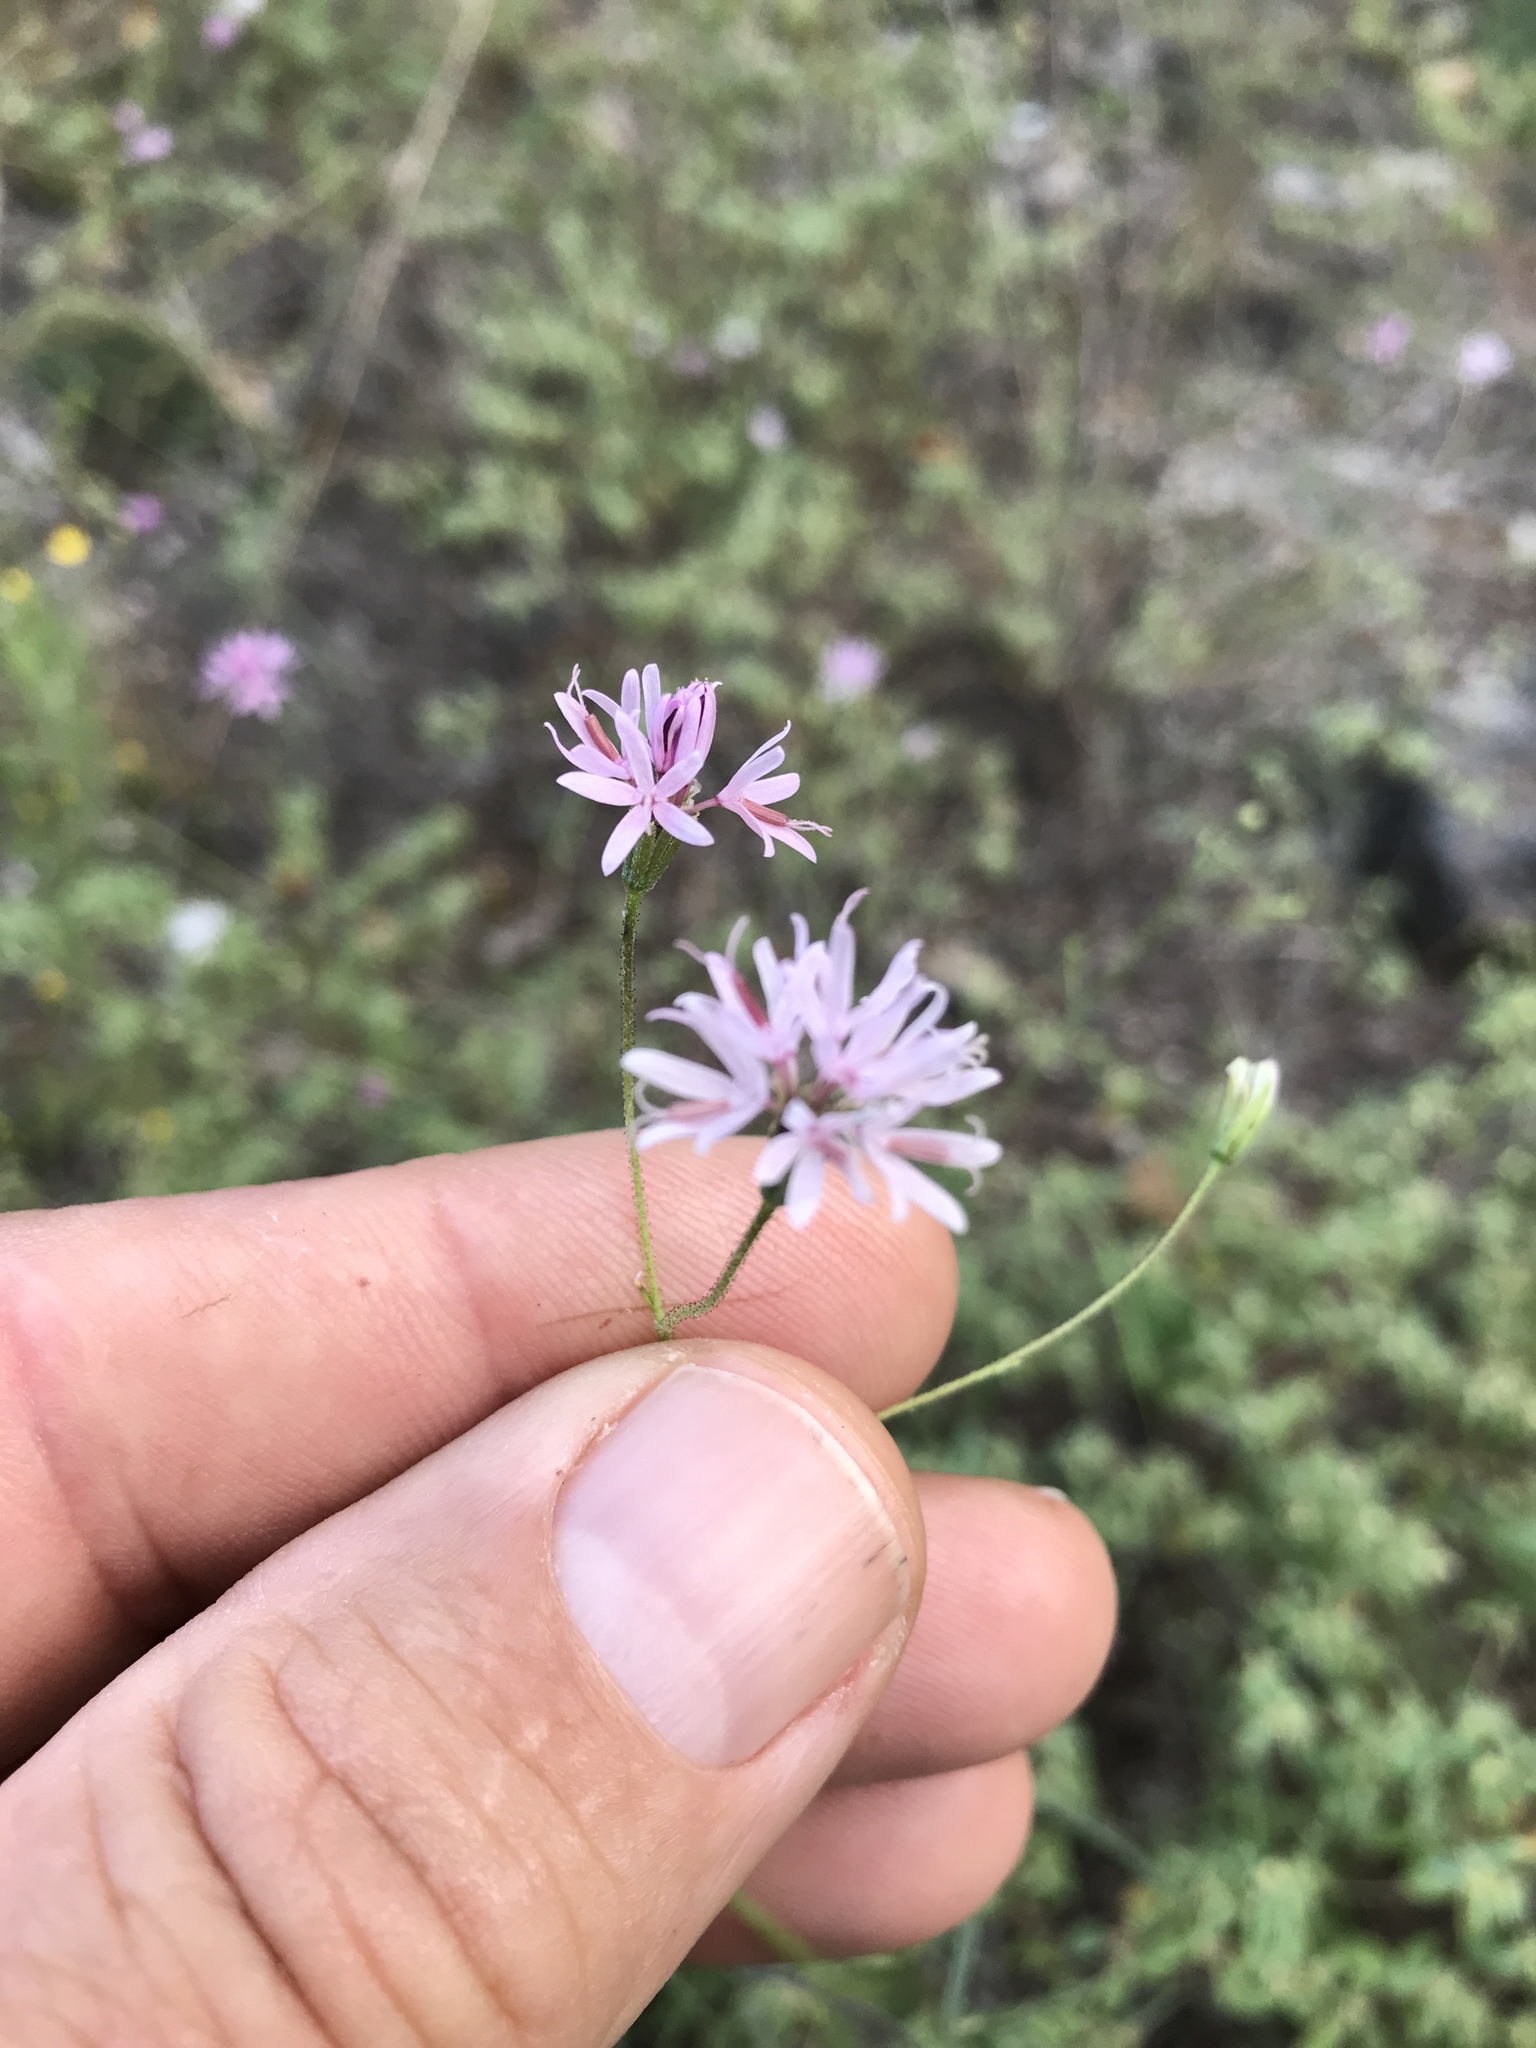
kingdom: Plantae
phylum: Tracheophyta
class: Magnoliopsida
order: Asterales
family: Asteraceae
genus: Palafoxia
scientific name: Palafoxia callosa
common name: Small palafox
